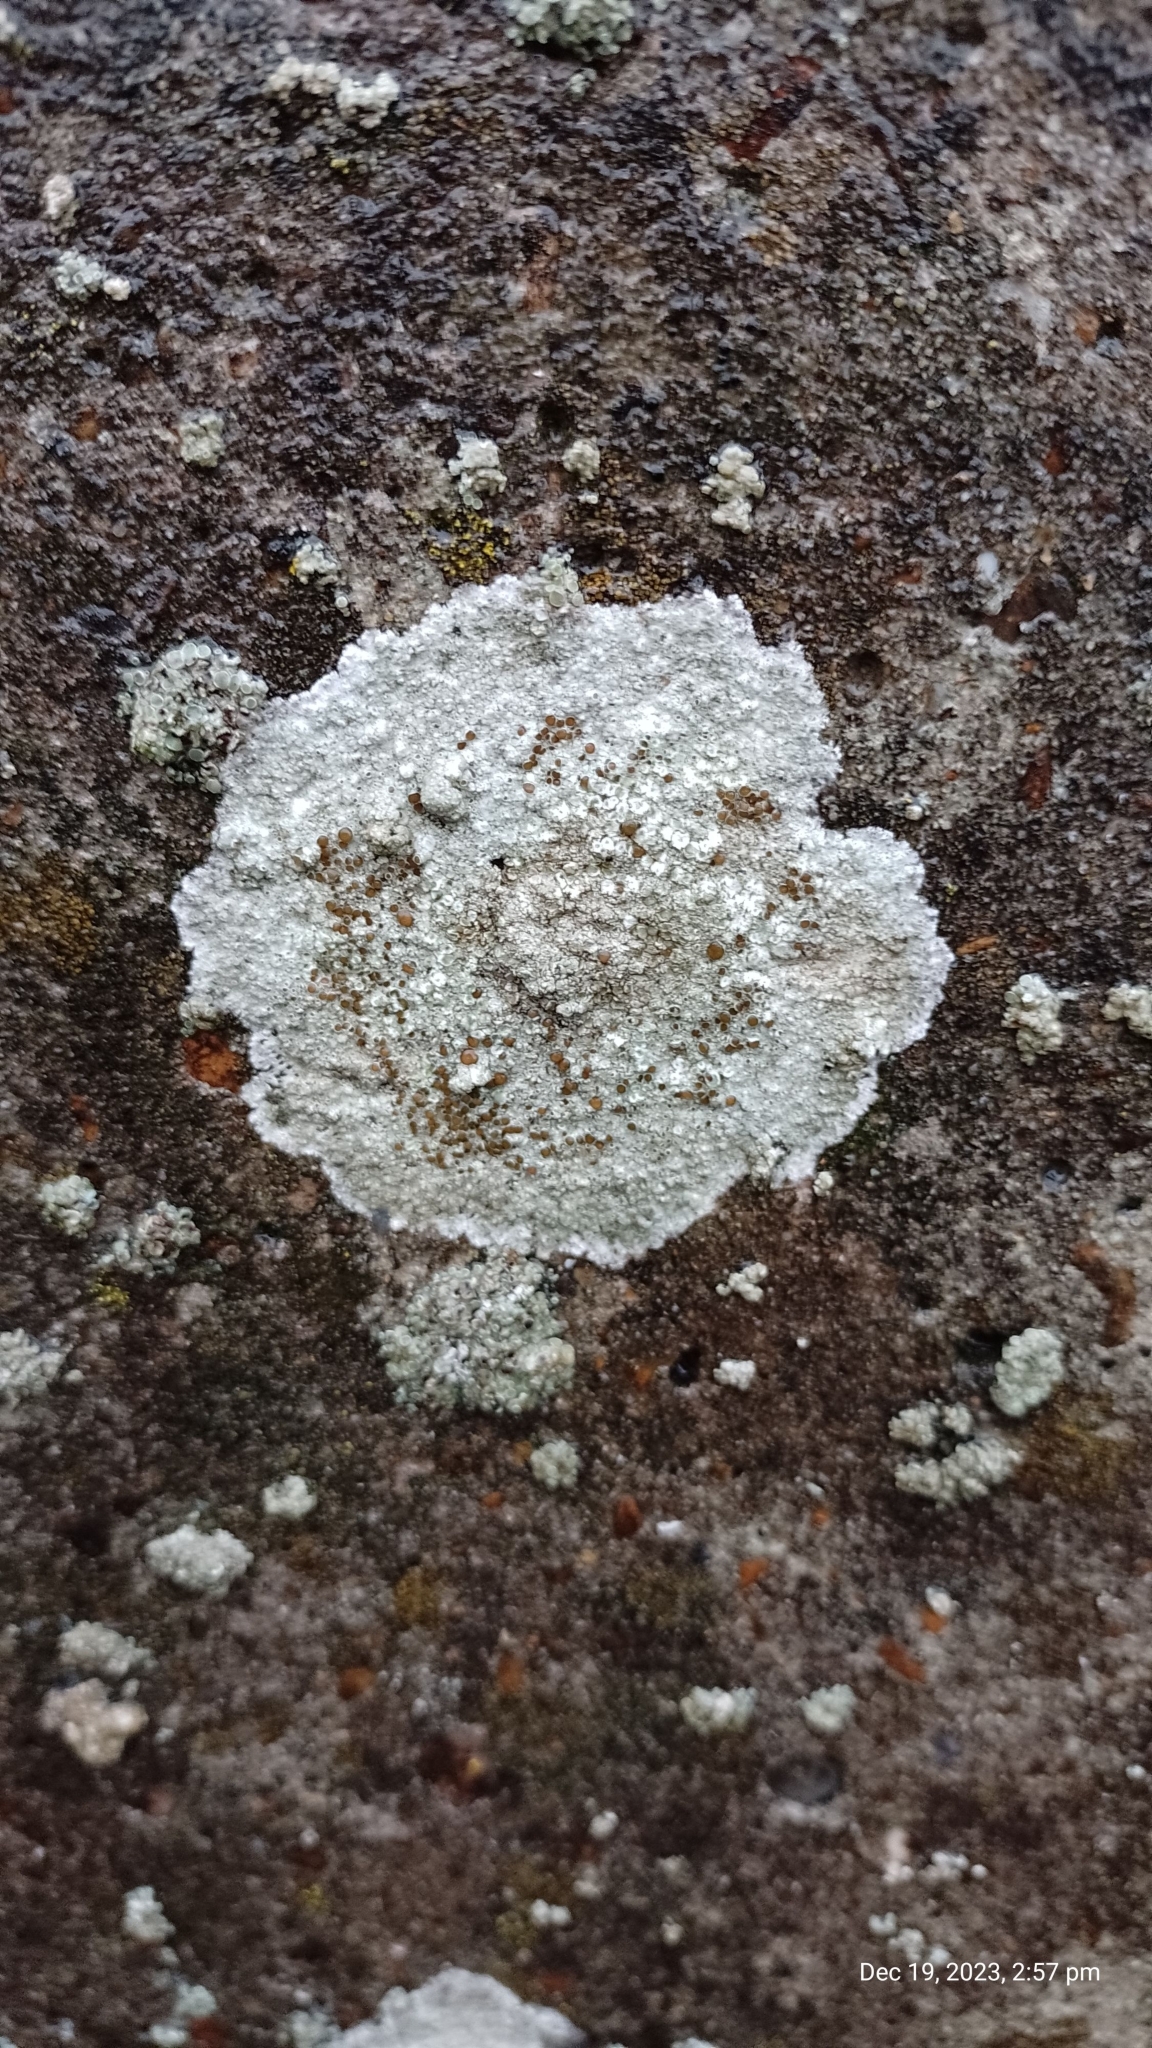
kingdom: Fungi
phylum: Ascomycota
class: Lecanoromycetes
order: Lecanorales
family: Lecanoraceae
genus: Lecanora
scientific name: Lecanora campestris
